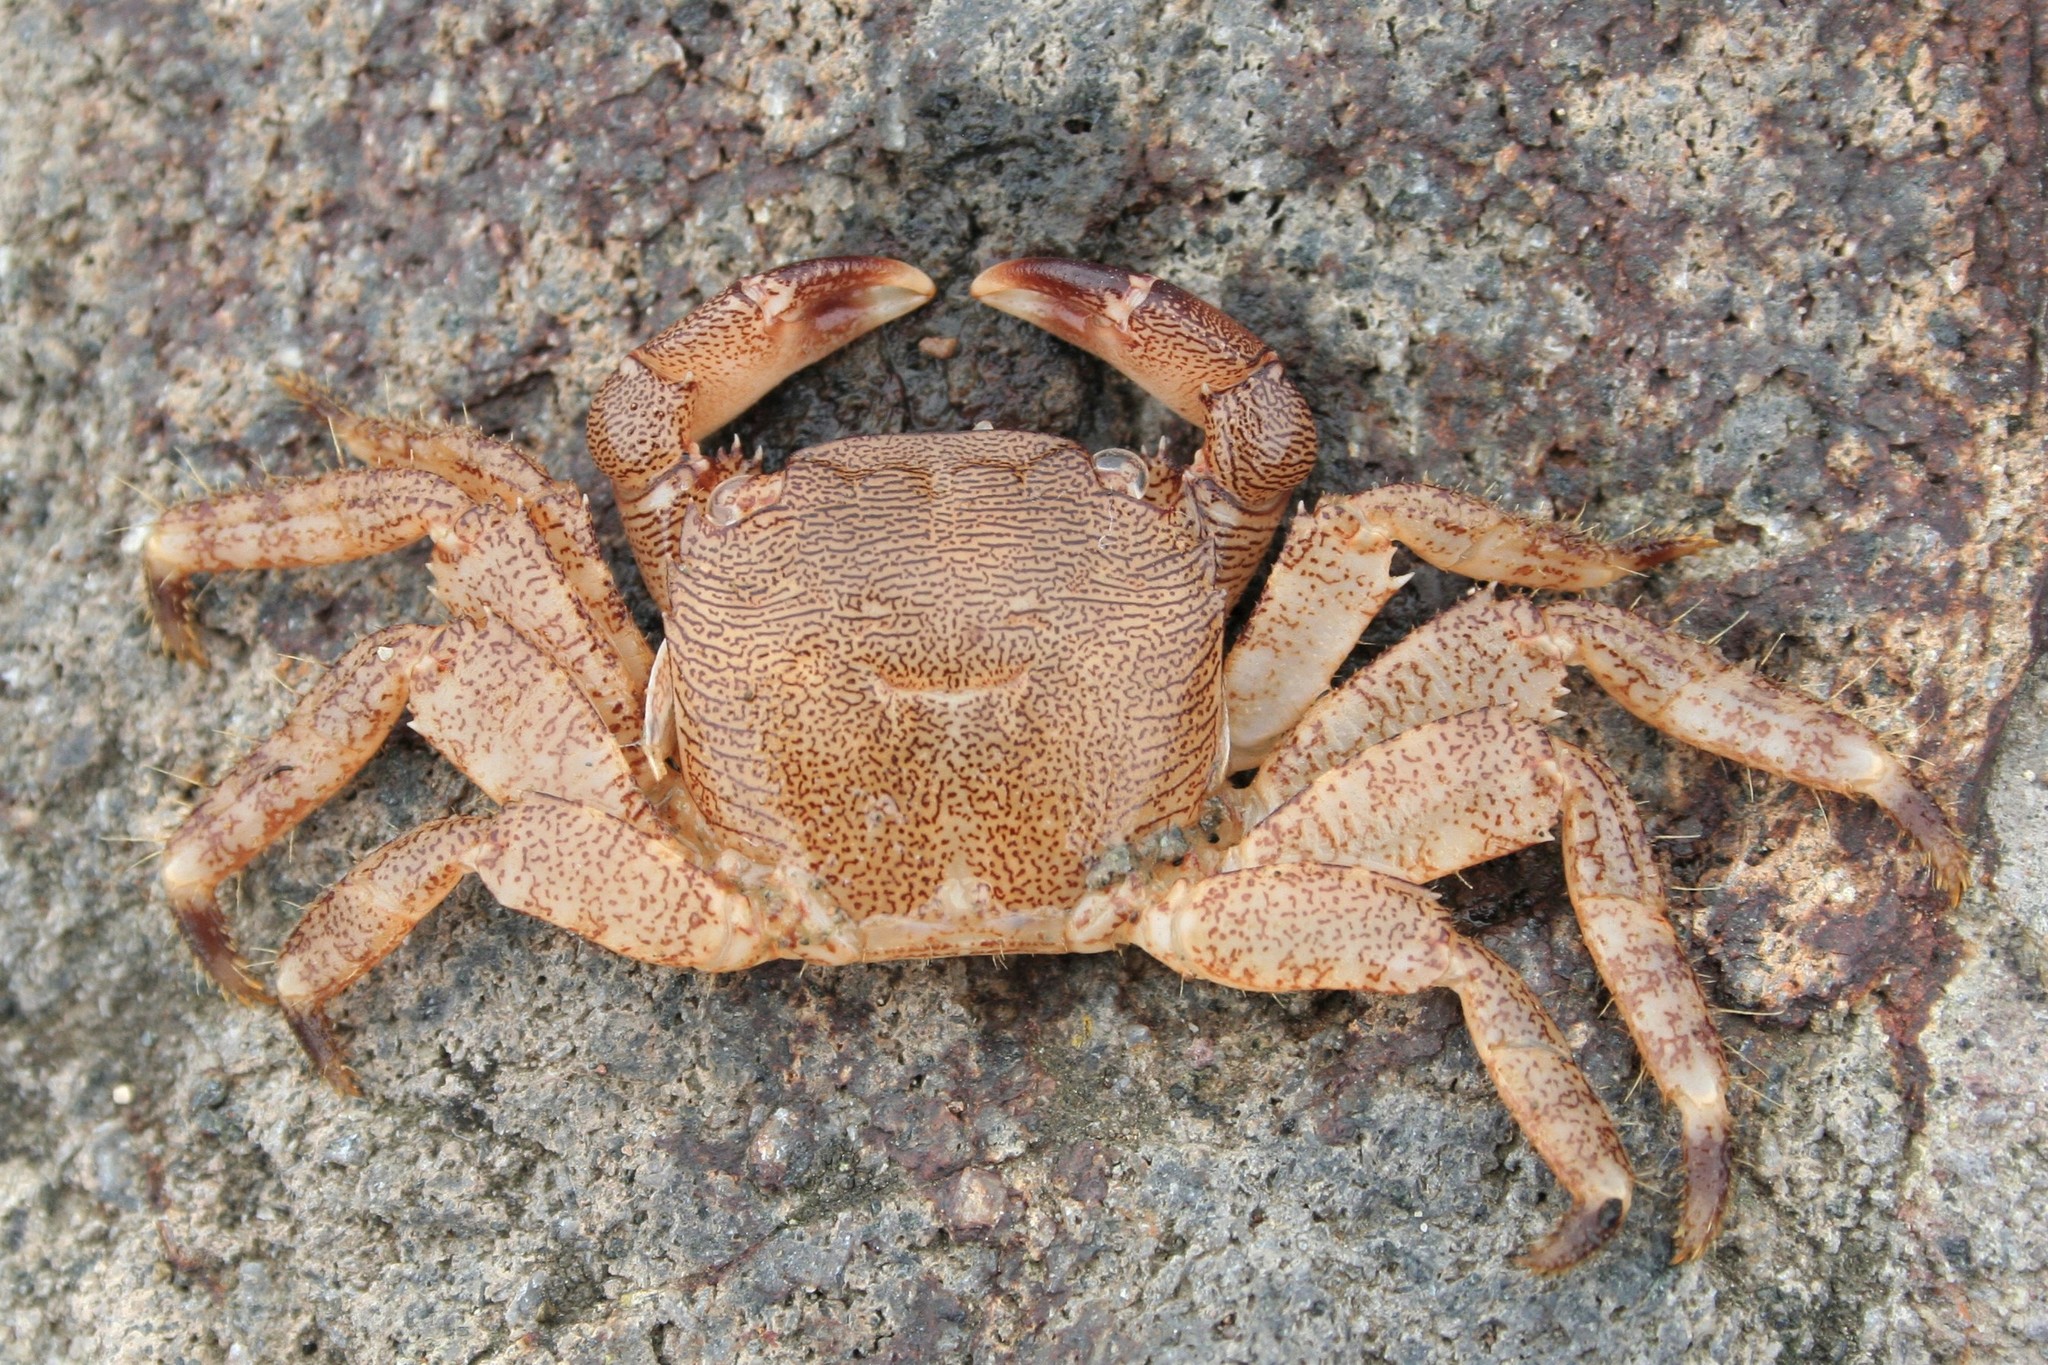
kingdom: Animalia
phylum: Arthropoda
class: Malacostraca
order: Decapoda
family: Grapsidae
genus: Pachygrapsus
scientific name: Pachygrapsus marmoratus
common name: Marbled rock crab
